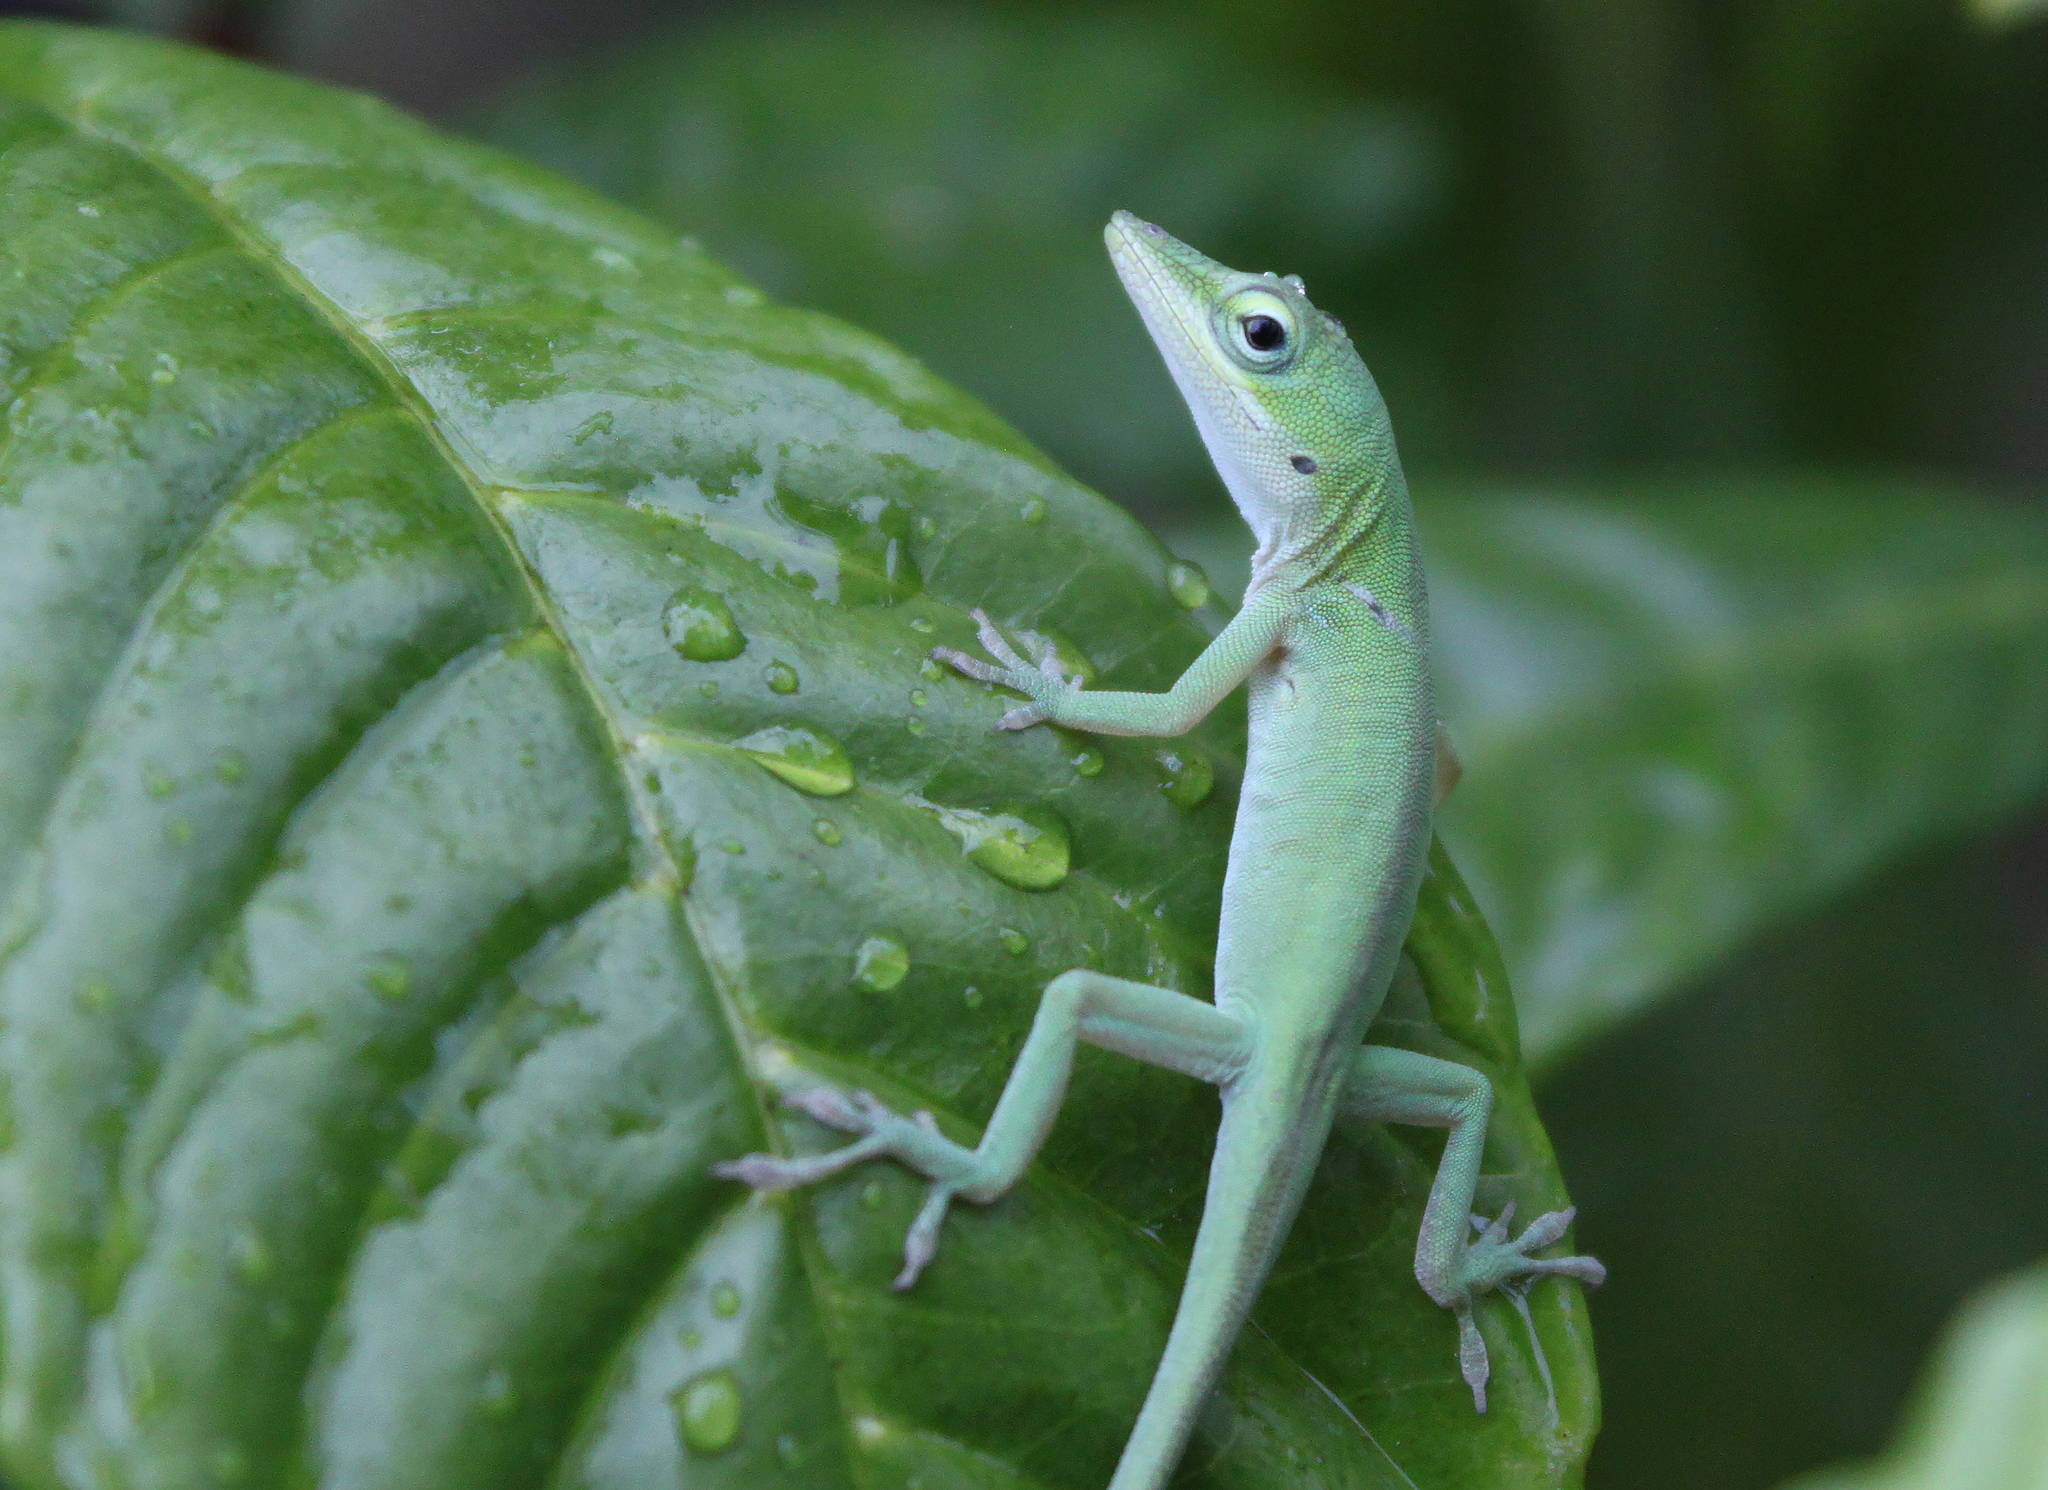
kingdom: Animalia
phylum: Chordata
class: Squamata
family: Dactyloidae
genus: Anolis
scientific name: Anolis carolinensis
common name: Green anole
